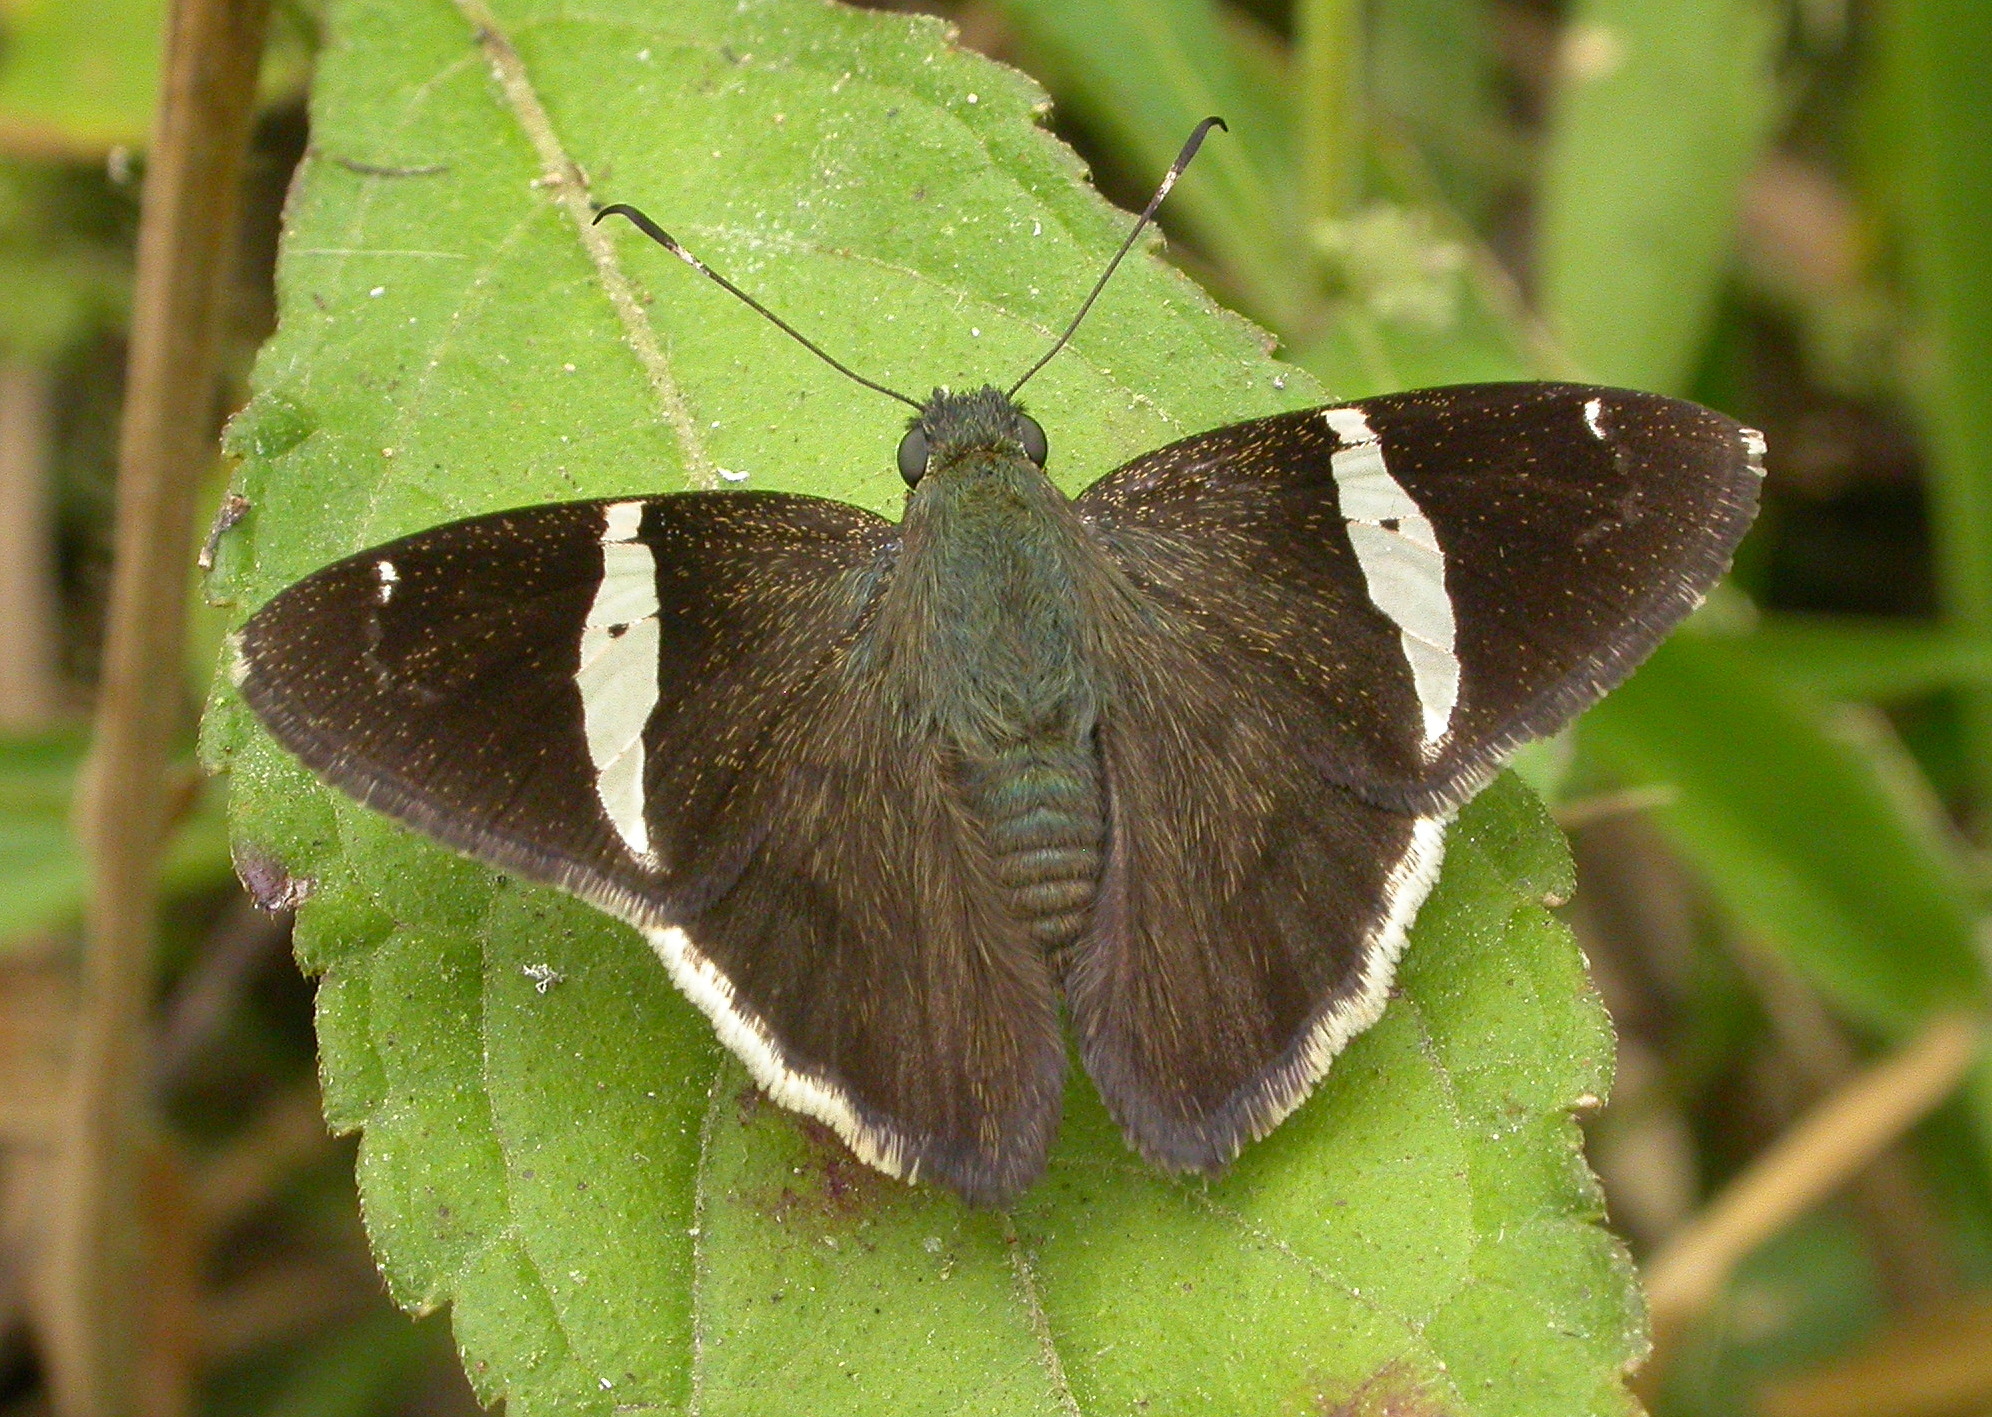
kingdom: Animalia
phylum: Arthropoda
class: Insecta
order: Lepidoptera
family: Hesperiidae
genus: Autochton
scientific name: Autochton longipennis
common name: Spike banded-skipper
